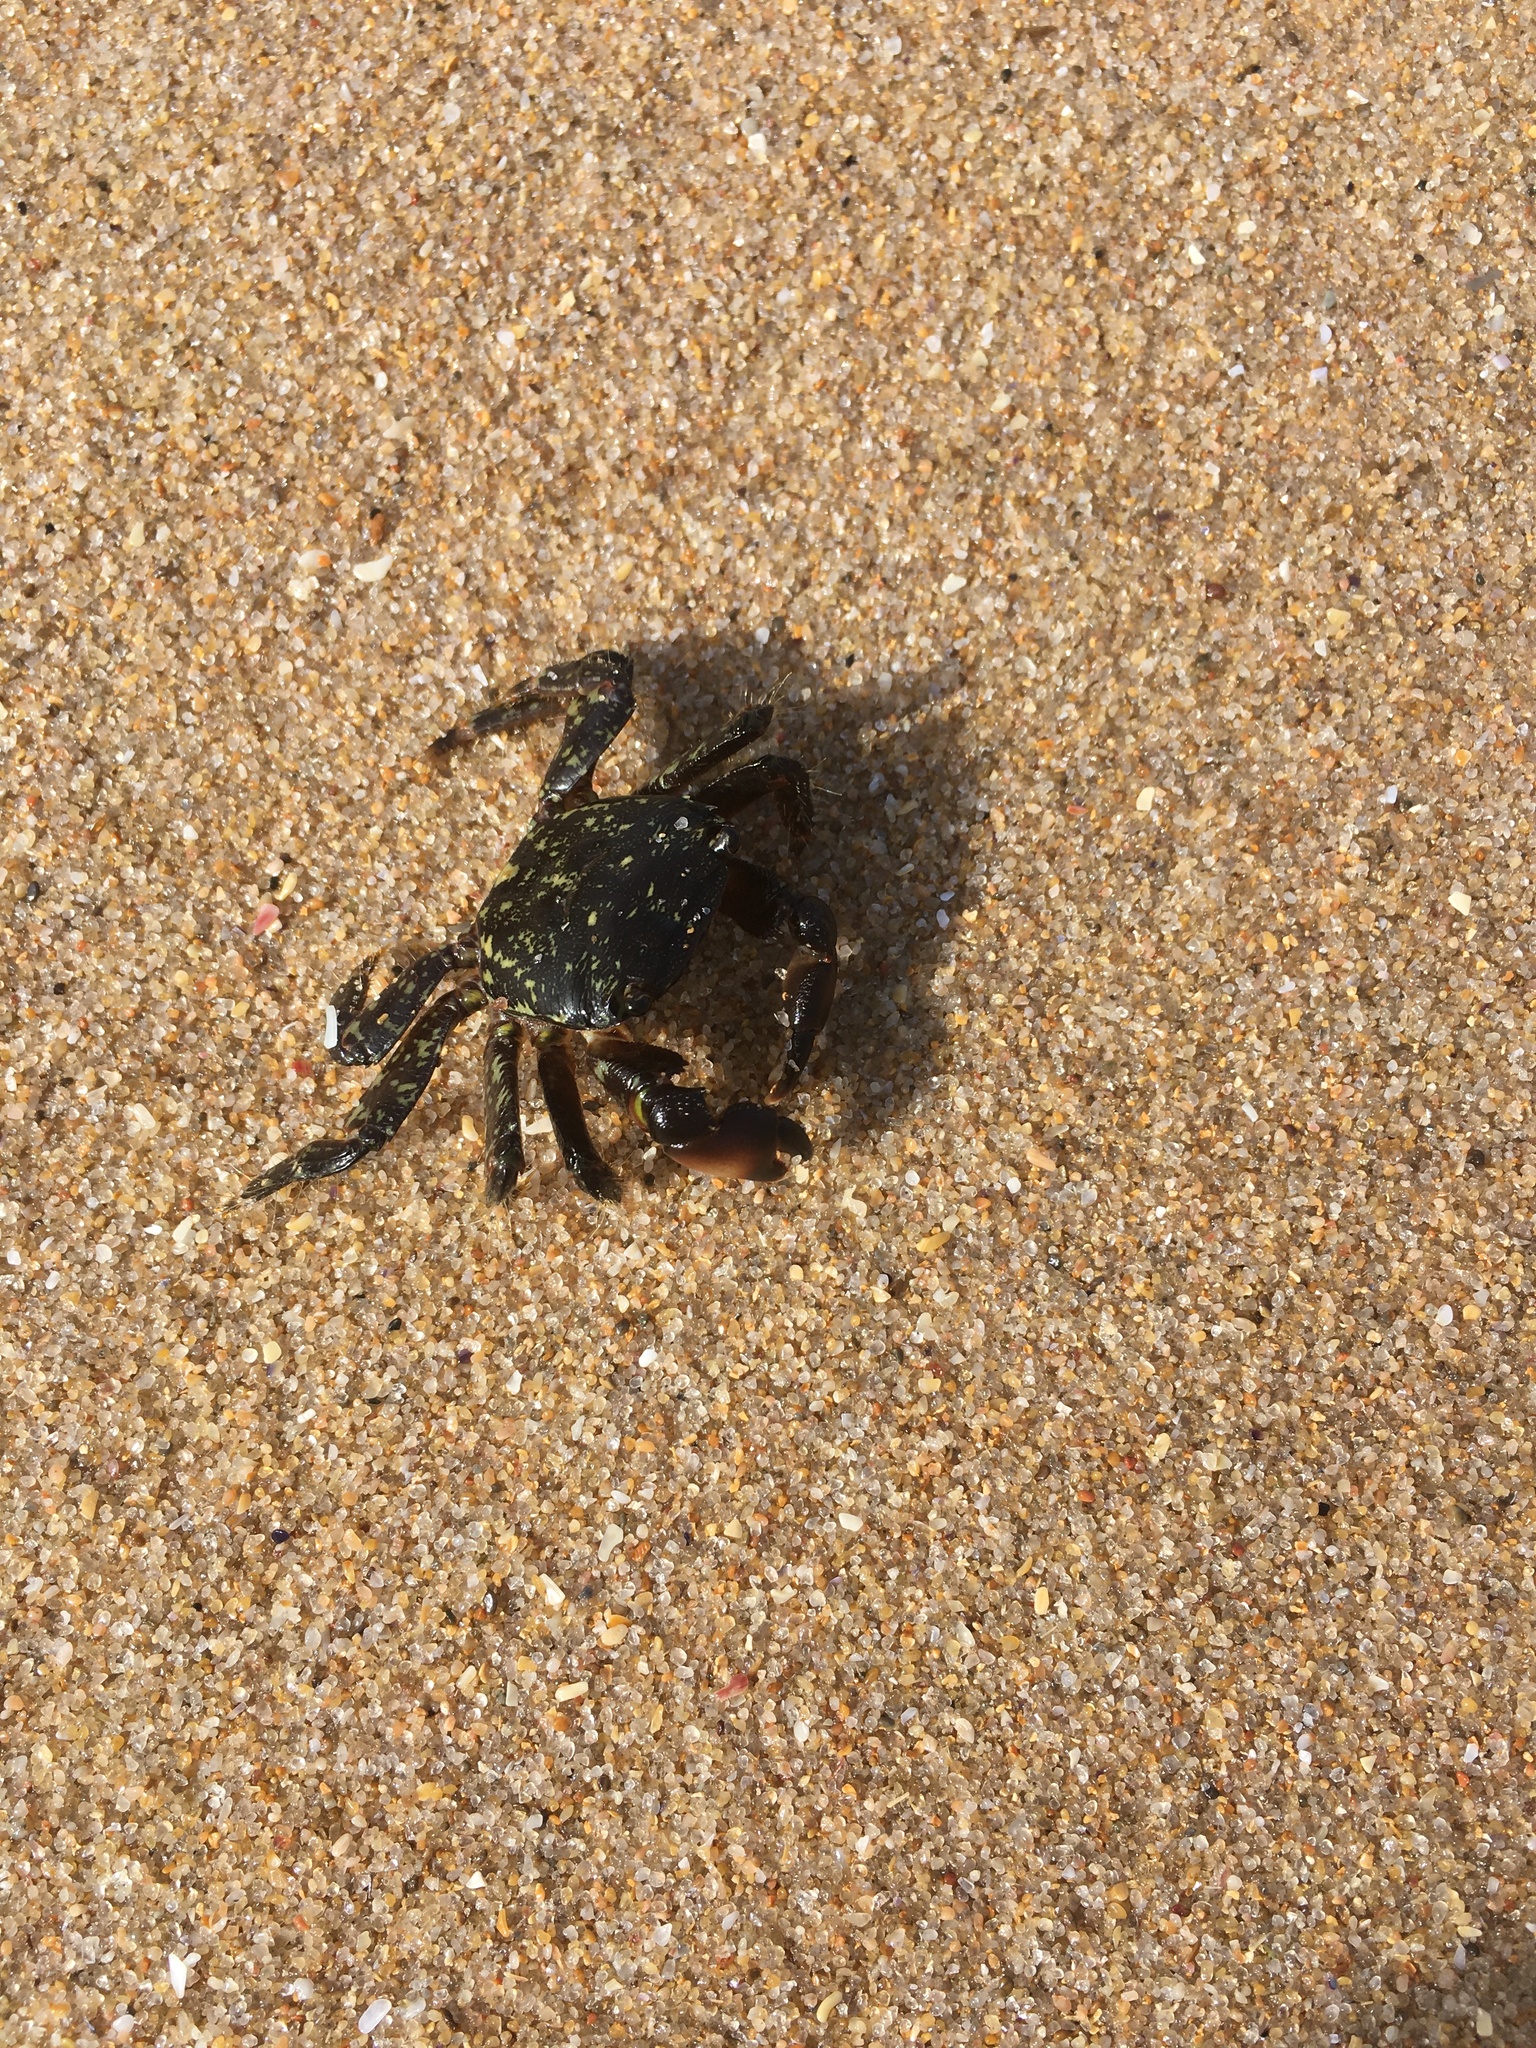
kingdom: Animalia
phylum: Arthropoda
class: Malacostraca
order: Decapoda
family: Grapsidae
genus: Pachygrapsus
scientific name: Pachygrapsus marmoratus
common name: Marbled rock crab
